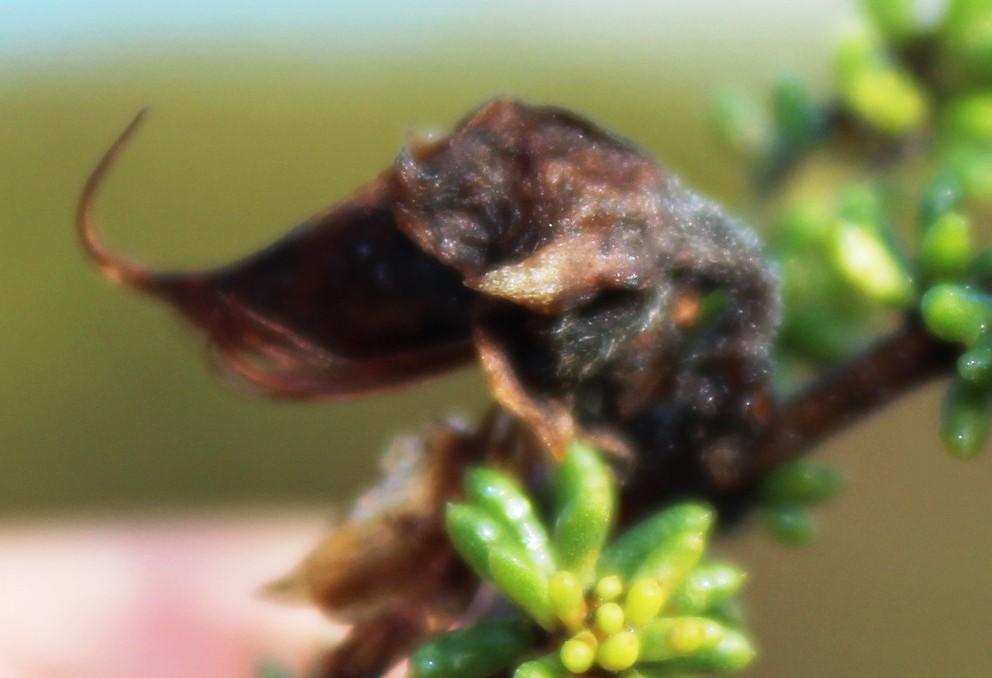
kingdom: Plantae
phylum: Tracheophyta
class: Magnoliopsida
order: Fabales
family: Fabaceae
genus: Aspalathus
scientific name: Aspalathus carnosa
